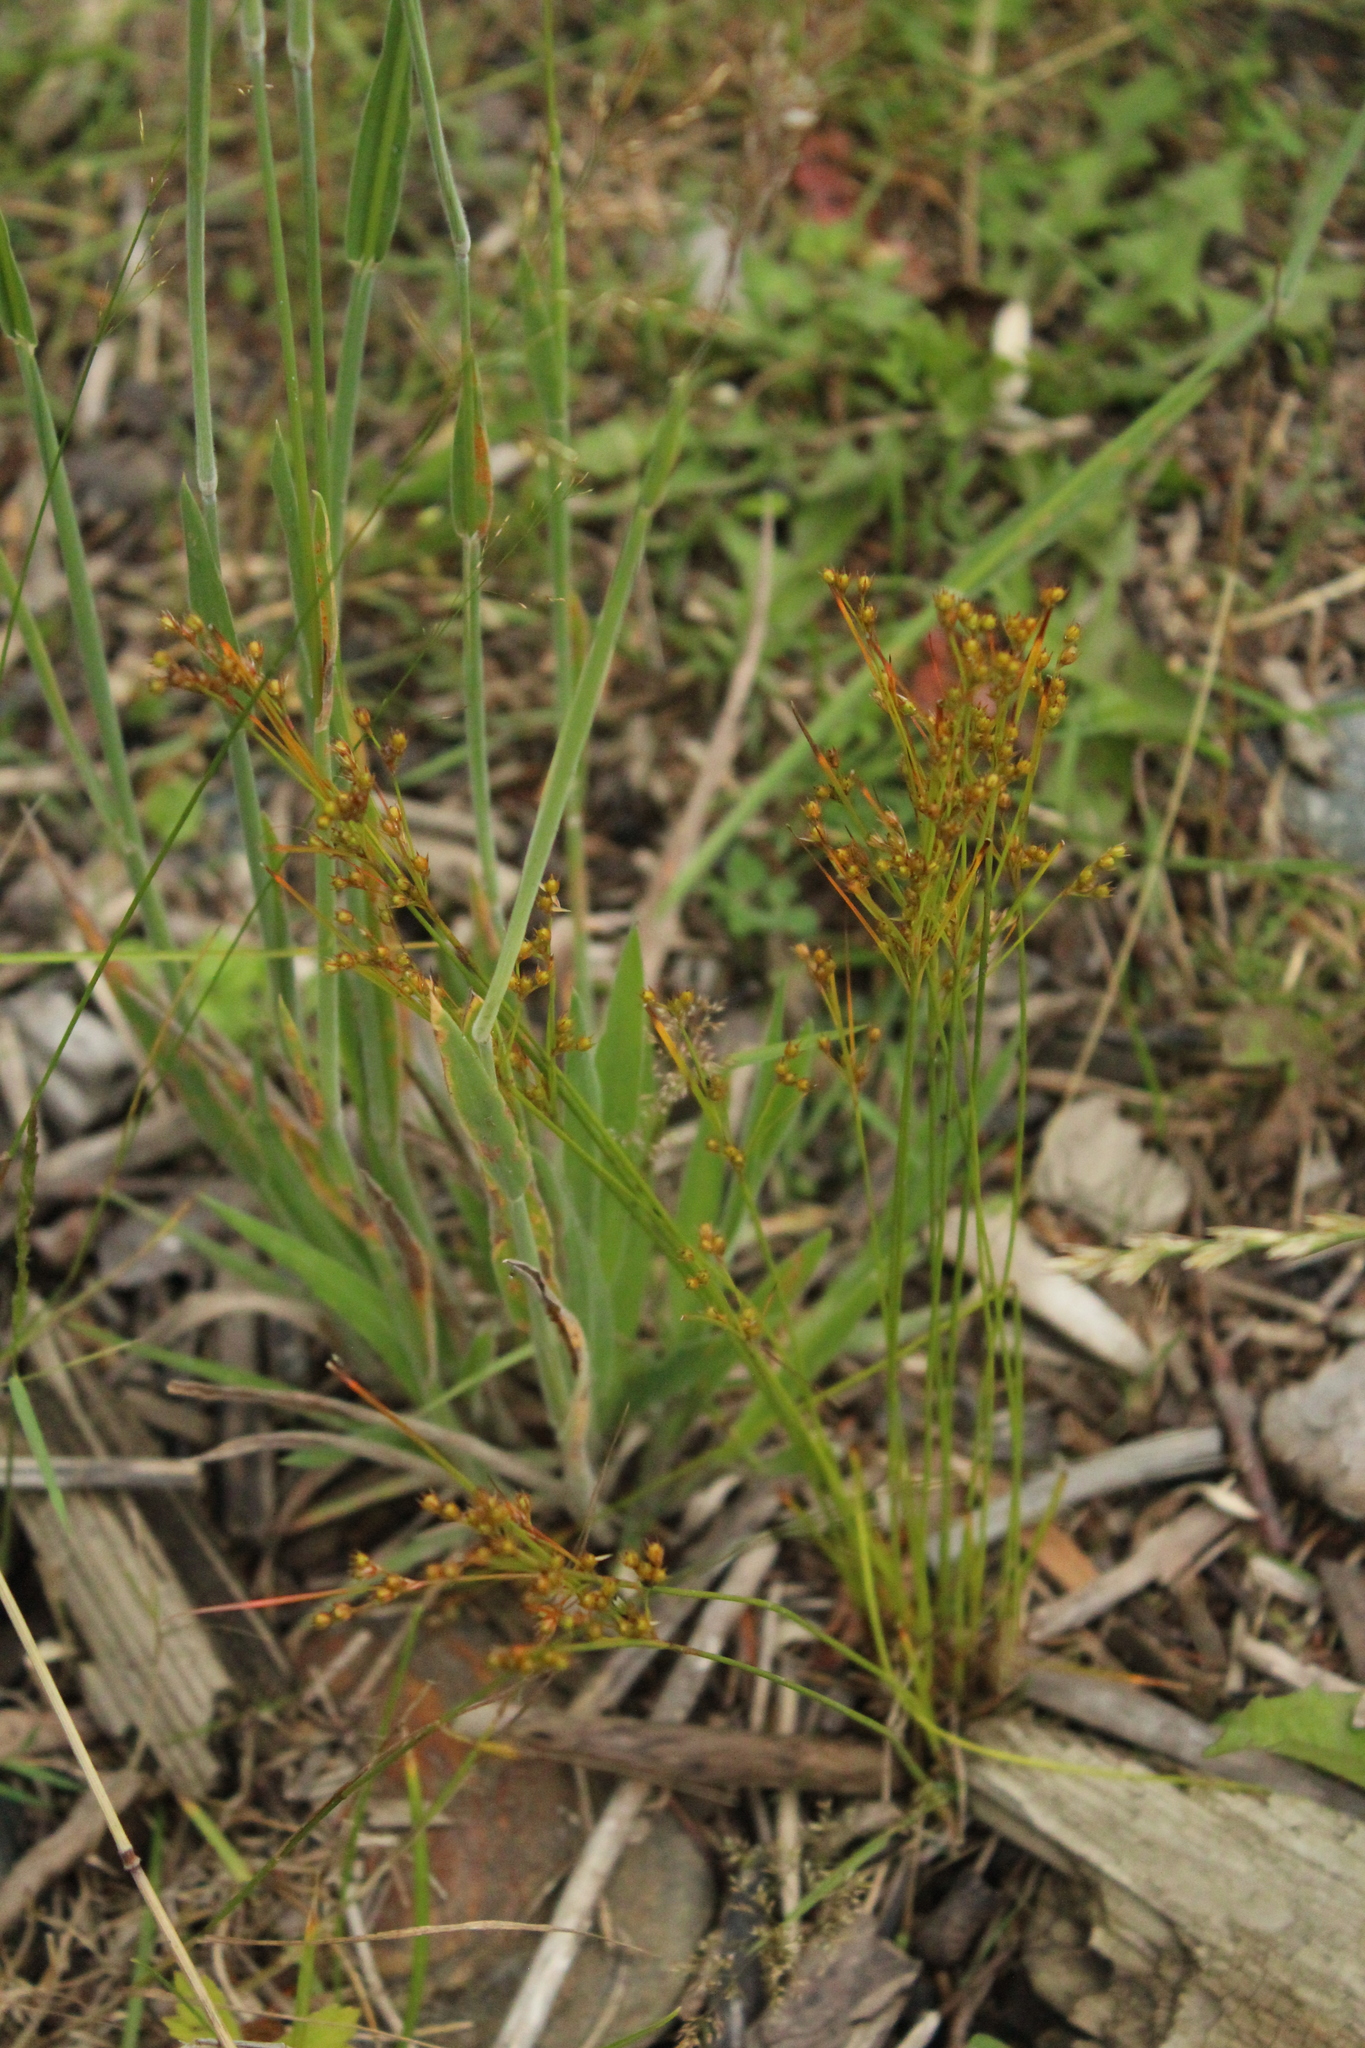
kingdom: Plantae
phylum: Tracheophyta
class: Liliopsida
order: Poales
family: Juncaceae
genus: Juncus
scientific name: Juncus tenuis
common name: Slender rush
